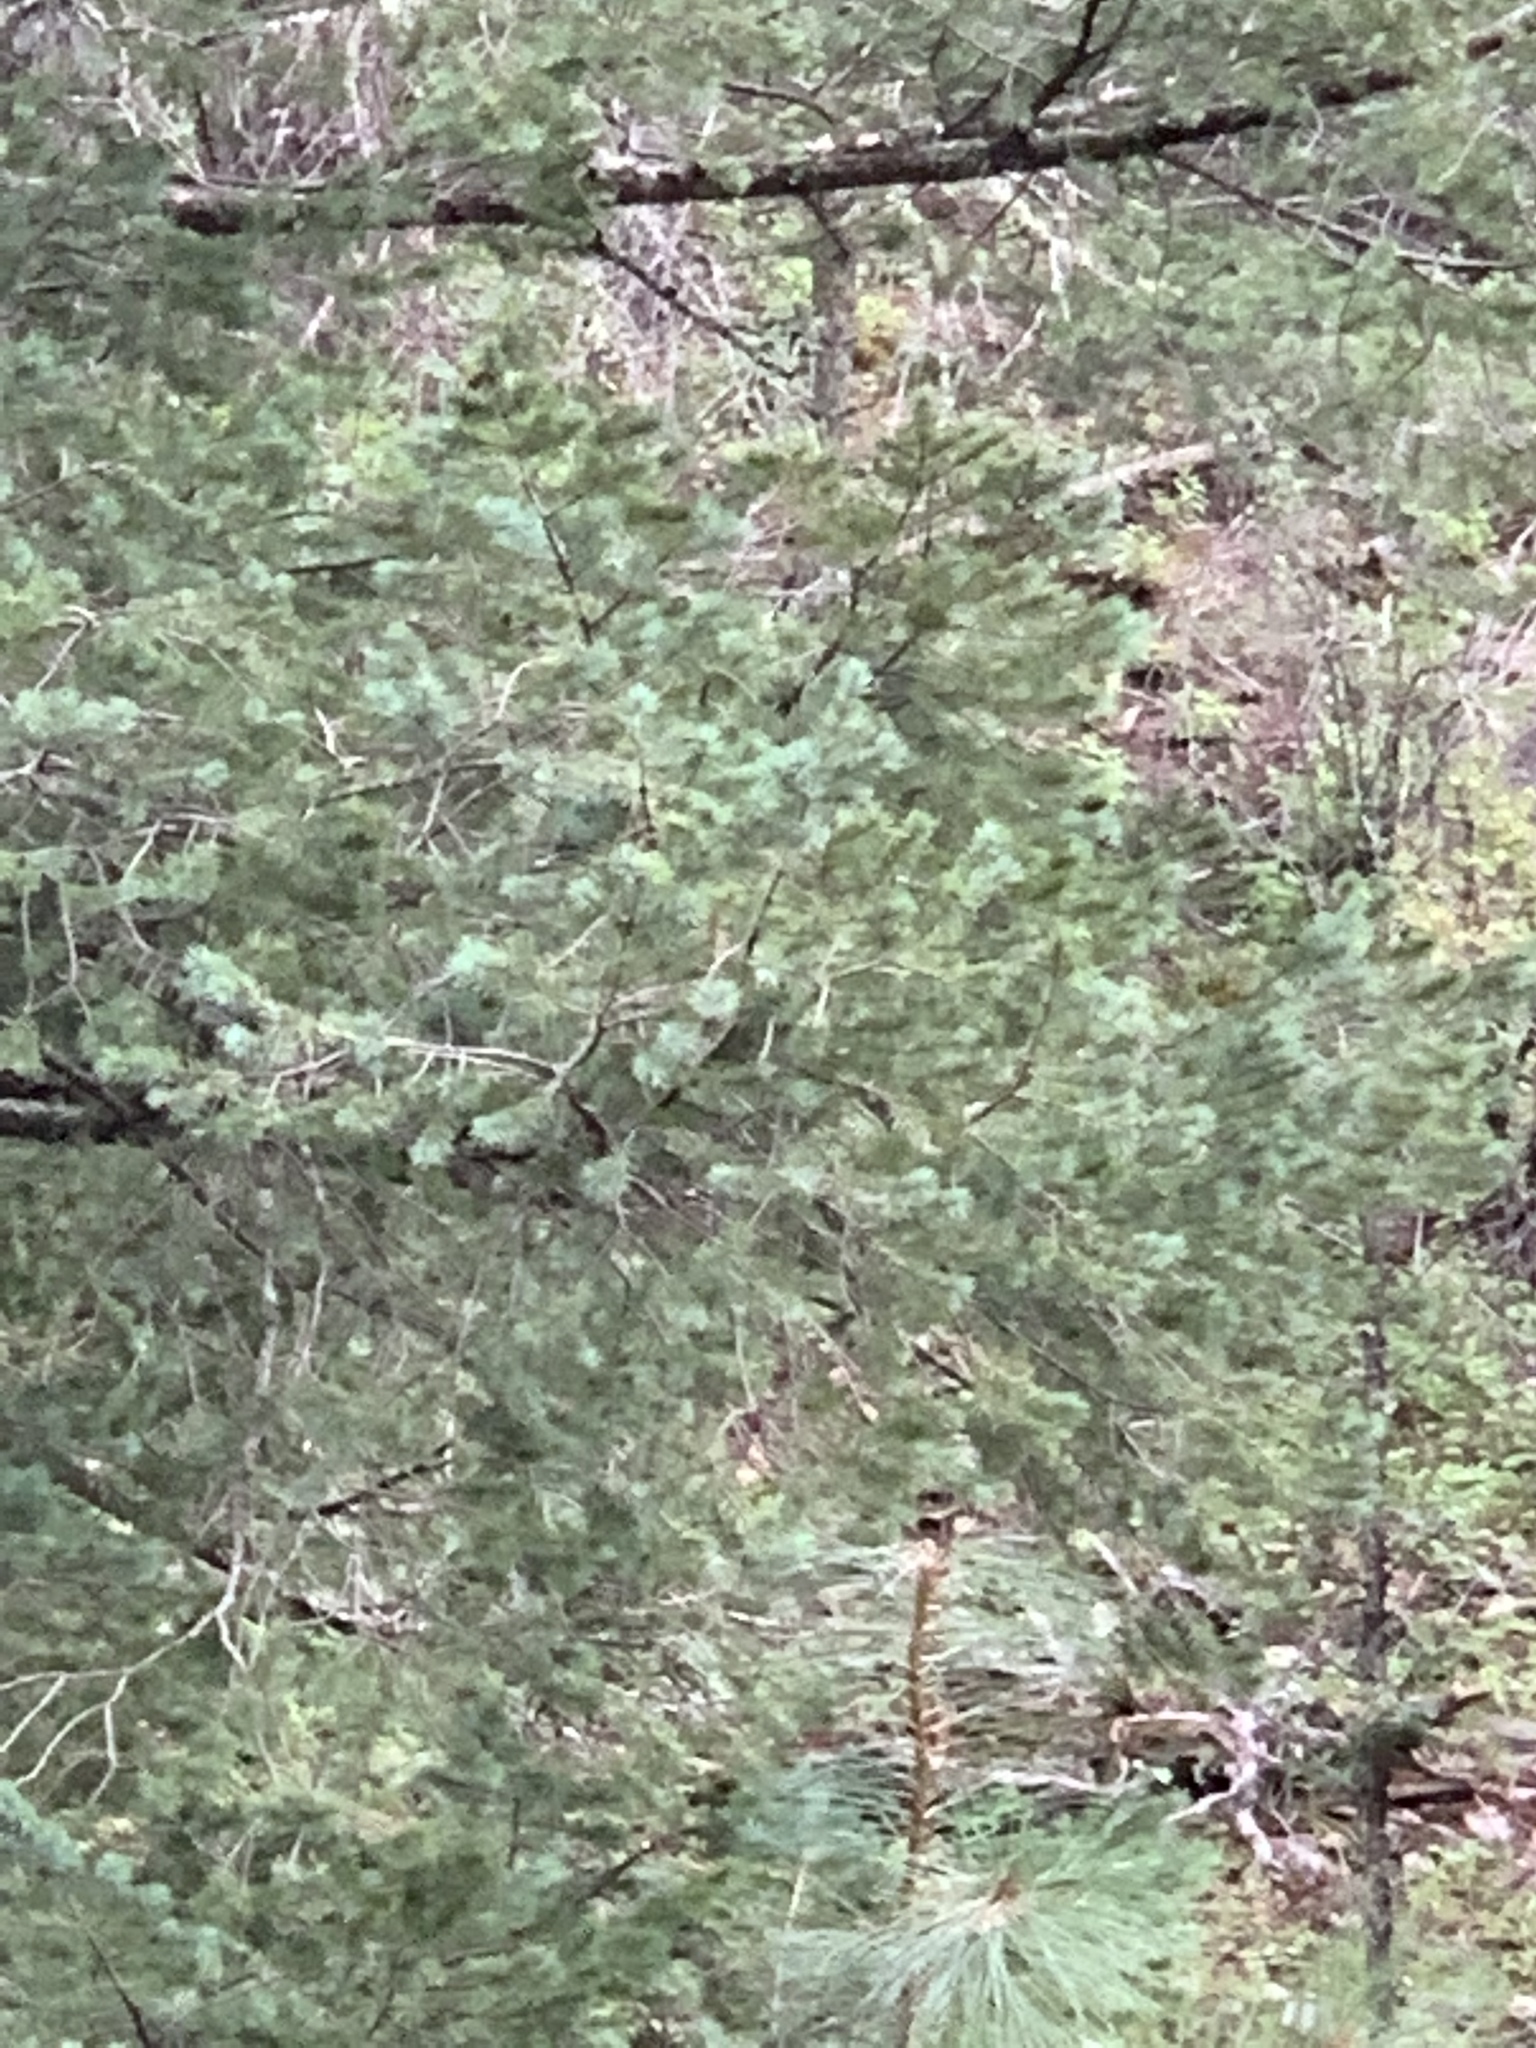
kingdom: Plantae
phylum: Tracheophyta
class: Pinopsida
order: Pinales
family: Pinaceae
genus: Pseudotsuga
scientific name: Pseudotsuga menziesii
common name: Douglas fir
